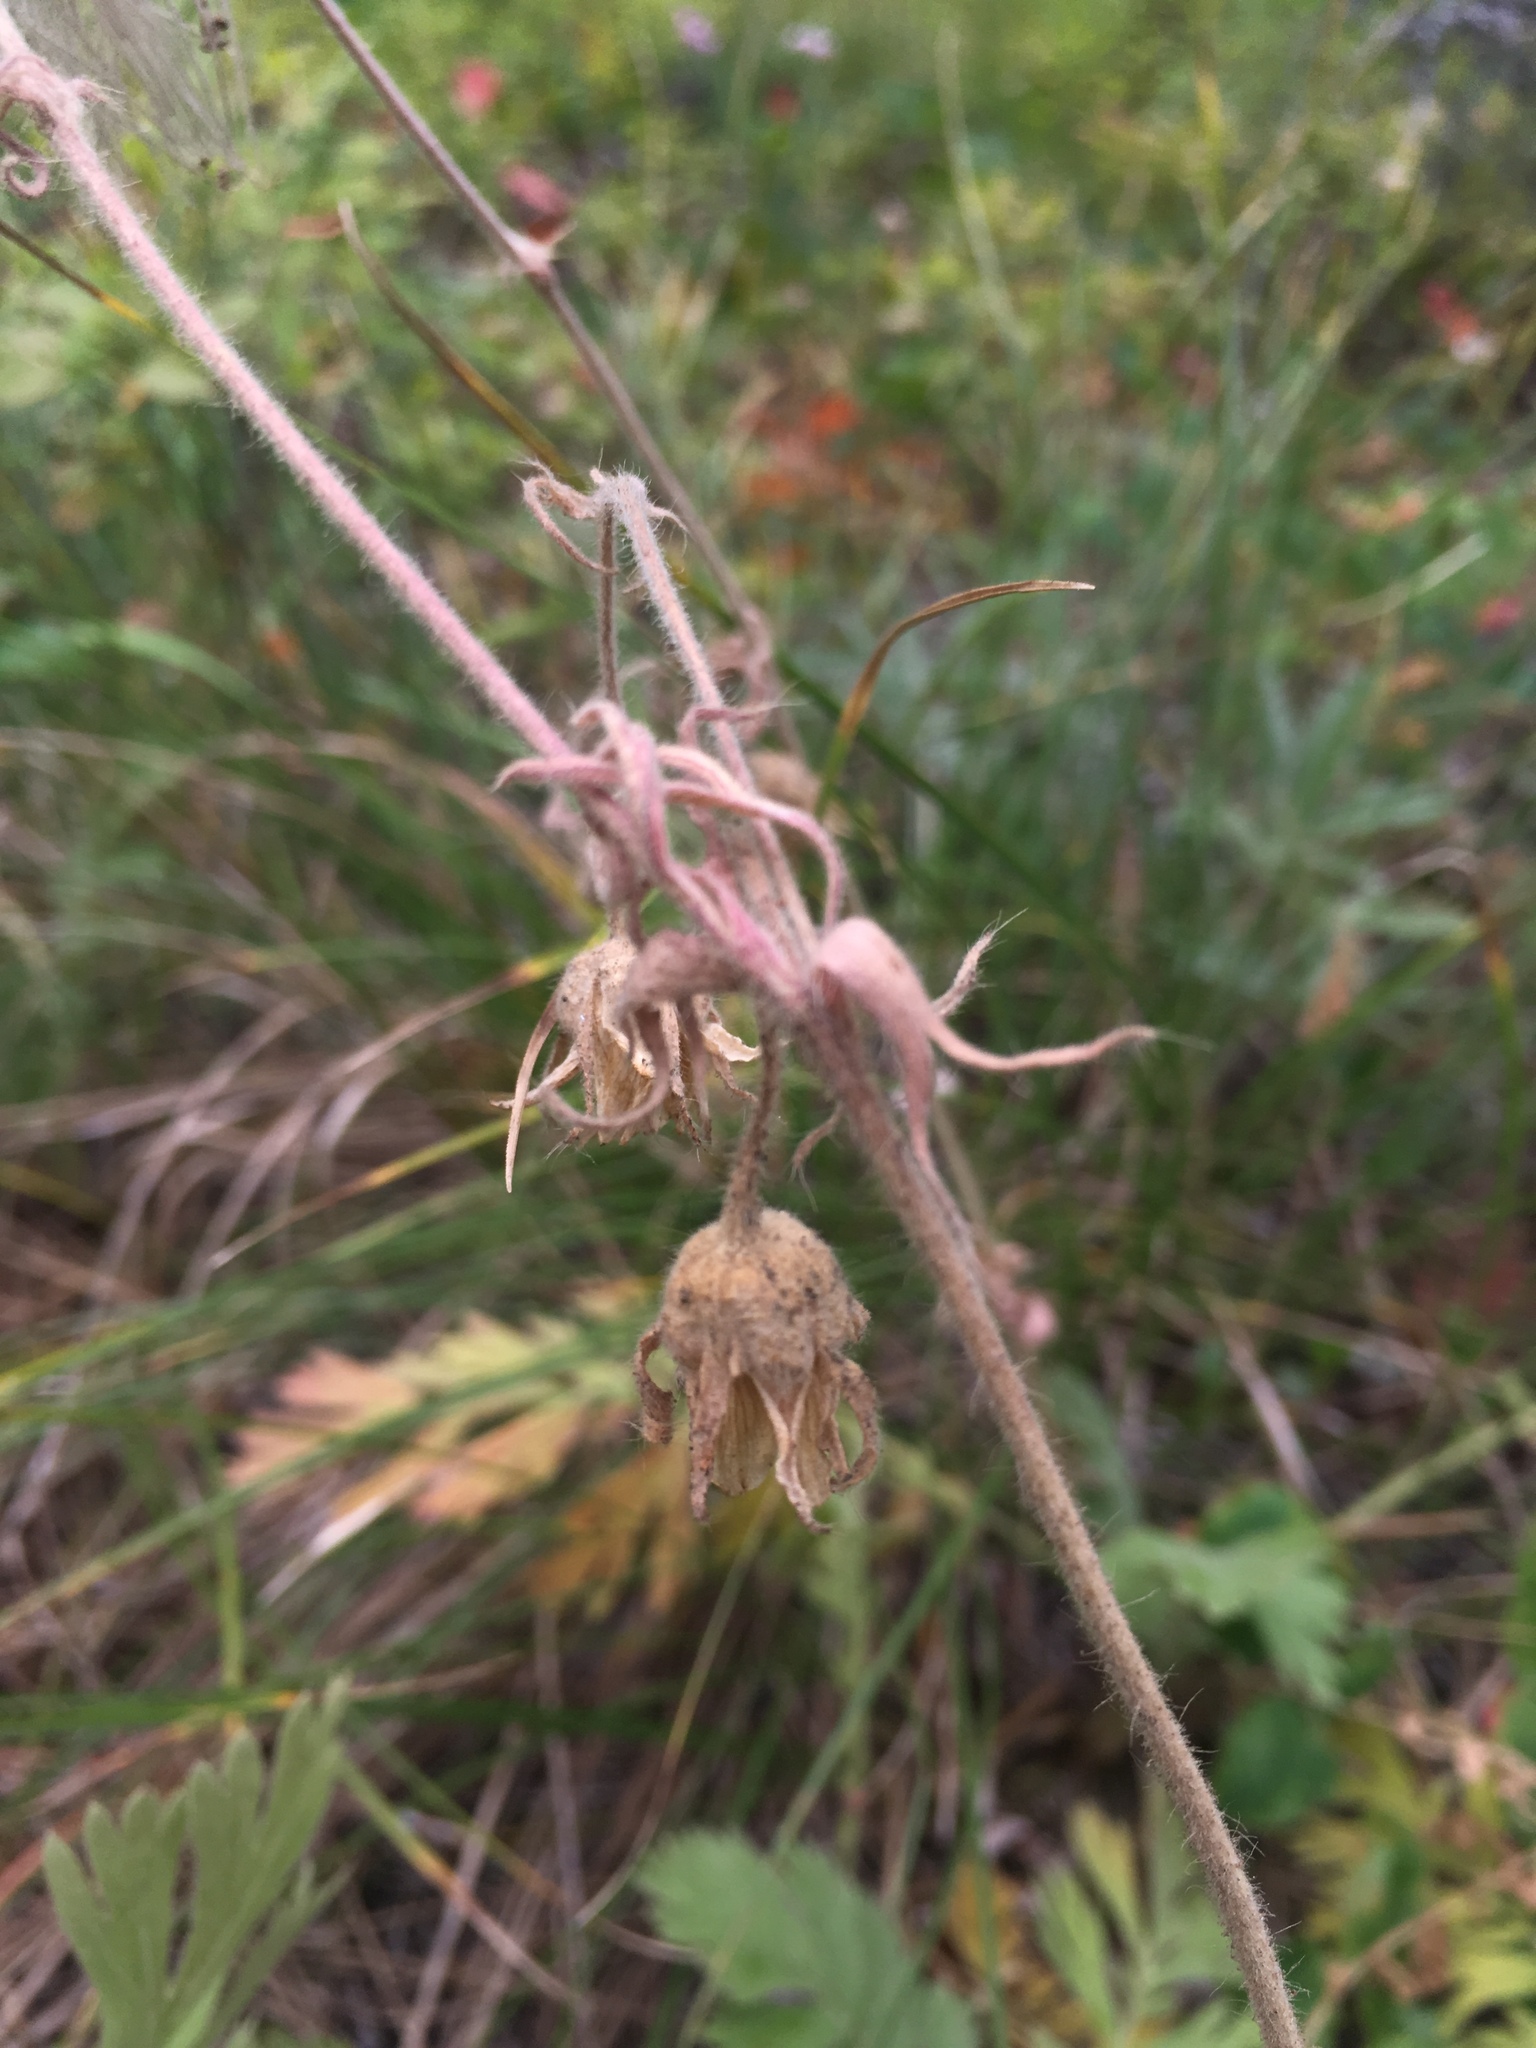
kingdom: Plantae
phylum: Tracheophyta
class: Magnoliopsida
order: Rosales
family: Rosaceae
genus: Geum
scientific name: Geum triflorum
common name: Old man's whiskers
